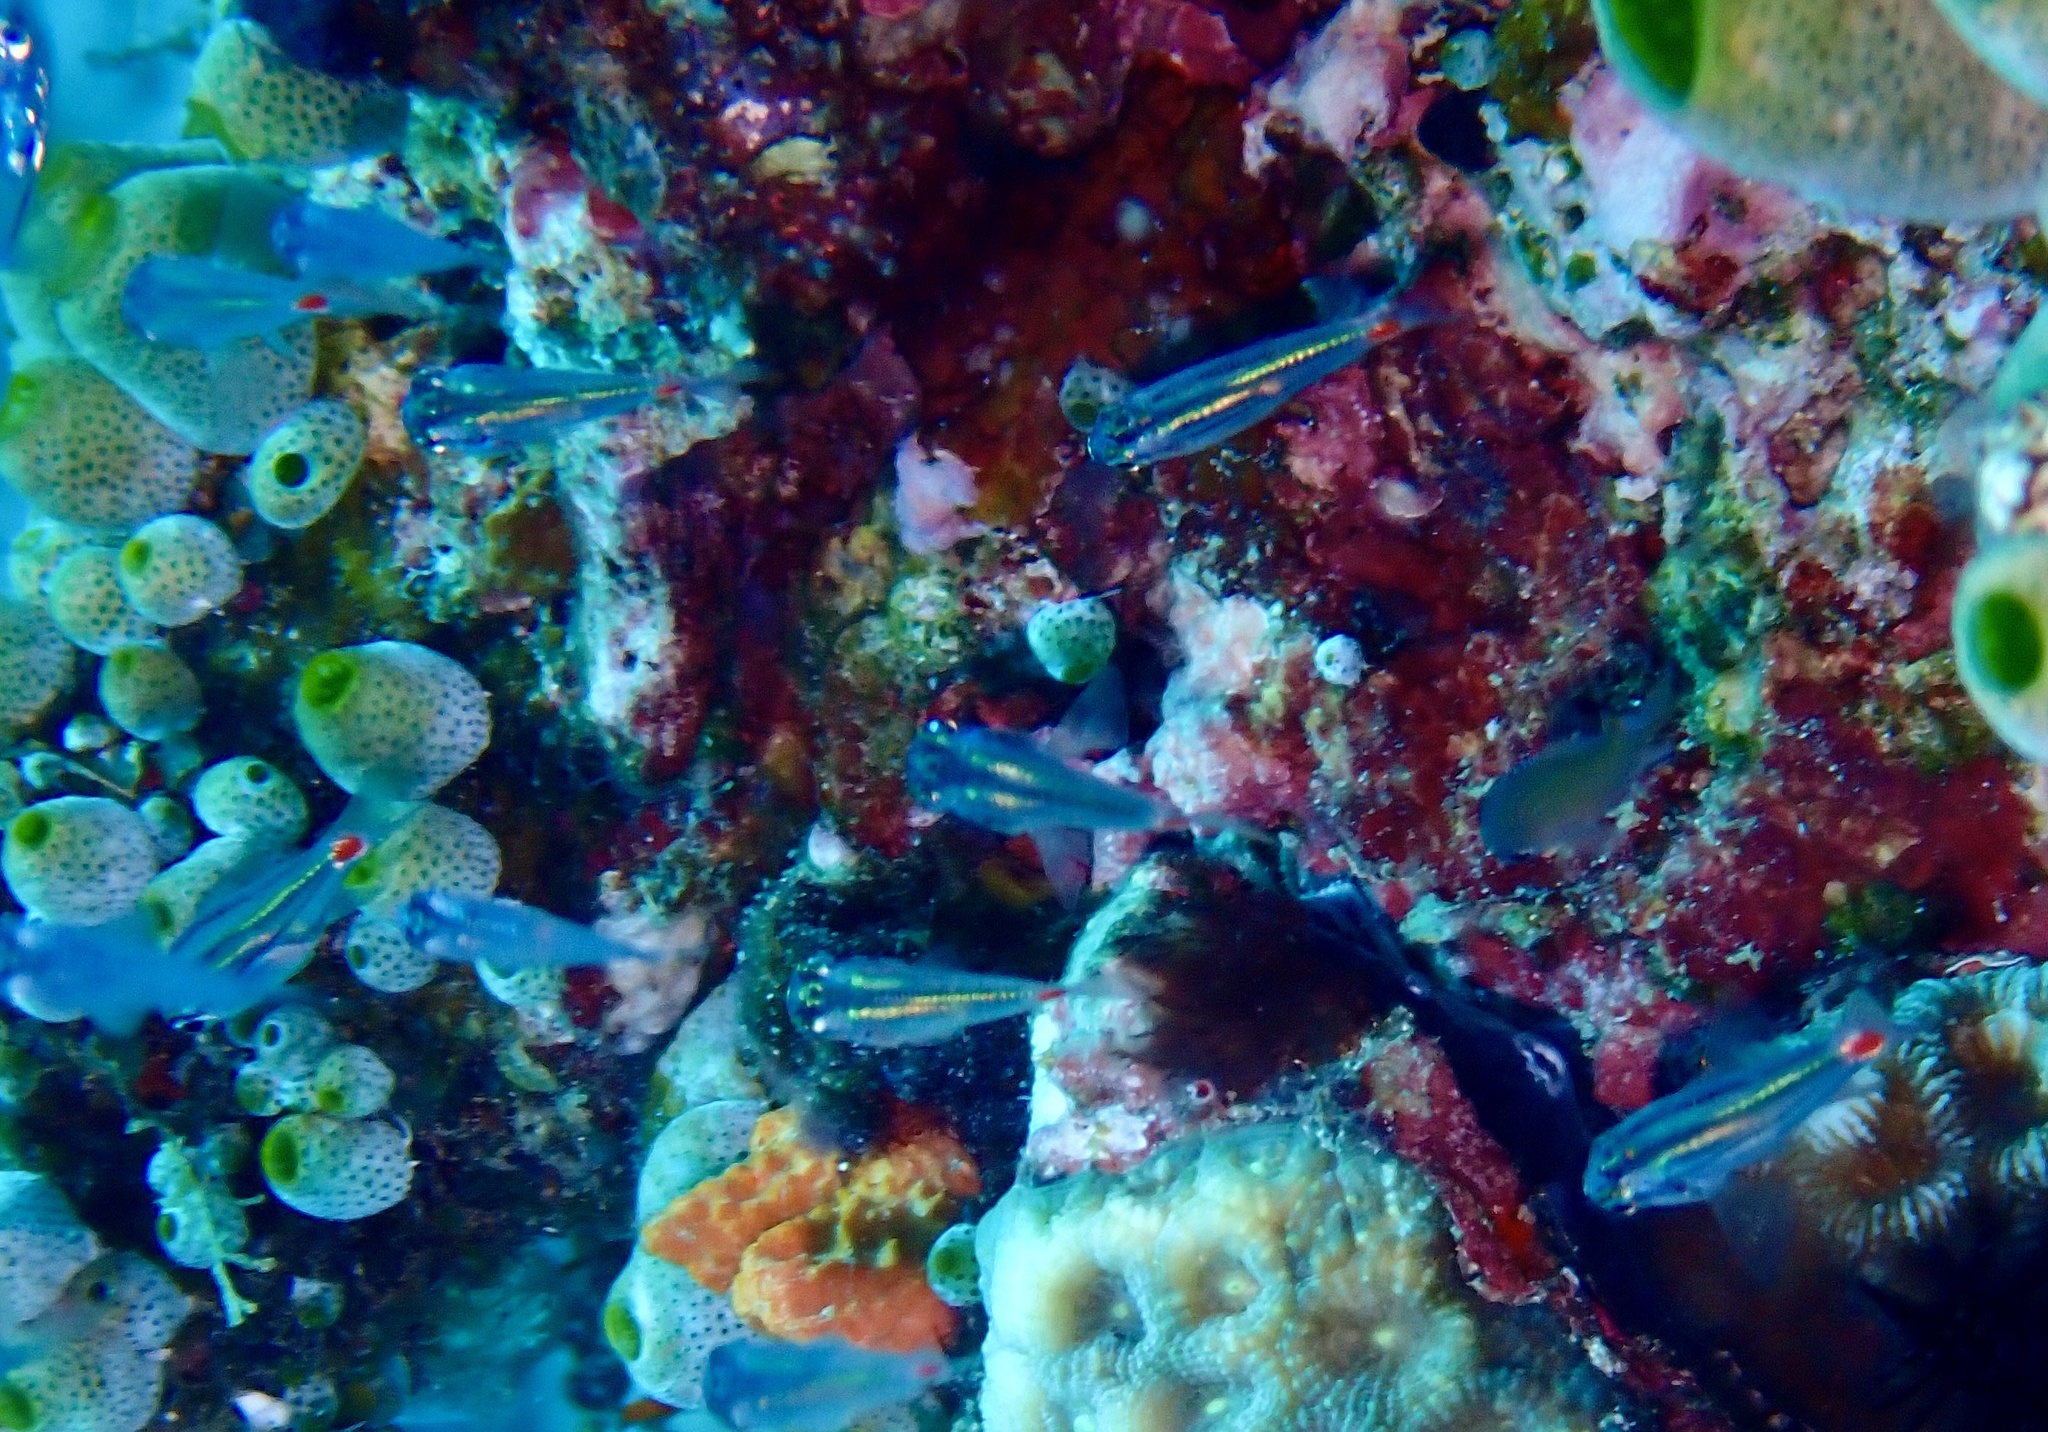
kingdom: Animalia
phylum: Chordata
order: Perciformes
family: Apogonidae
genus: Ostorhinchus
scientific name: Ostorhinchus parvulus
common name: Red-spot cardinalfish
